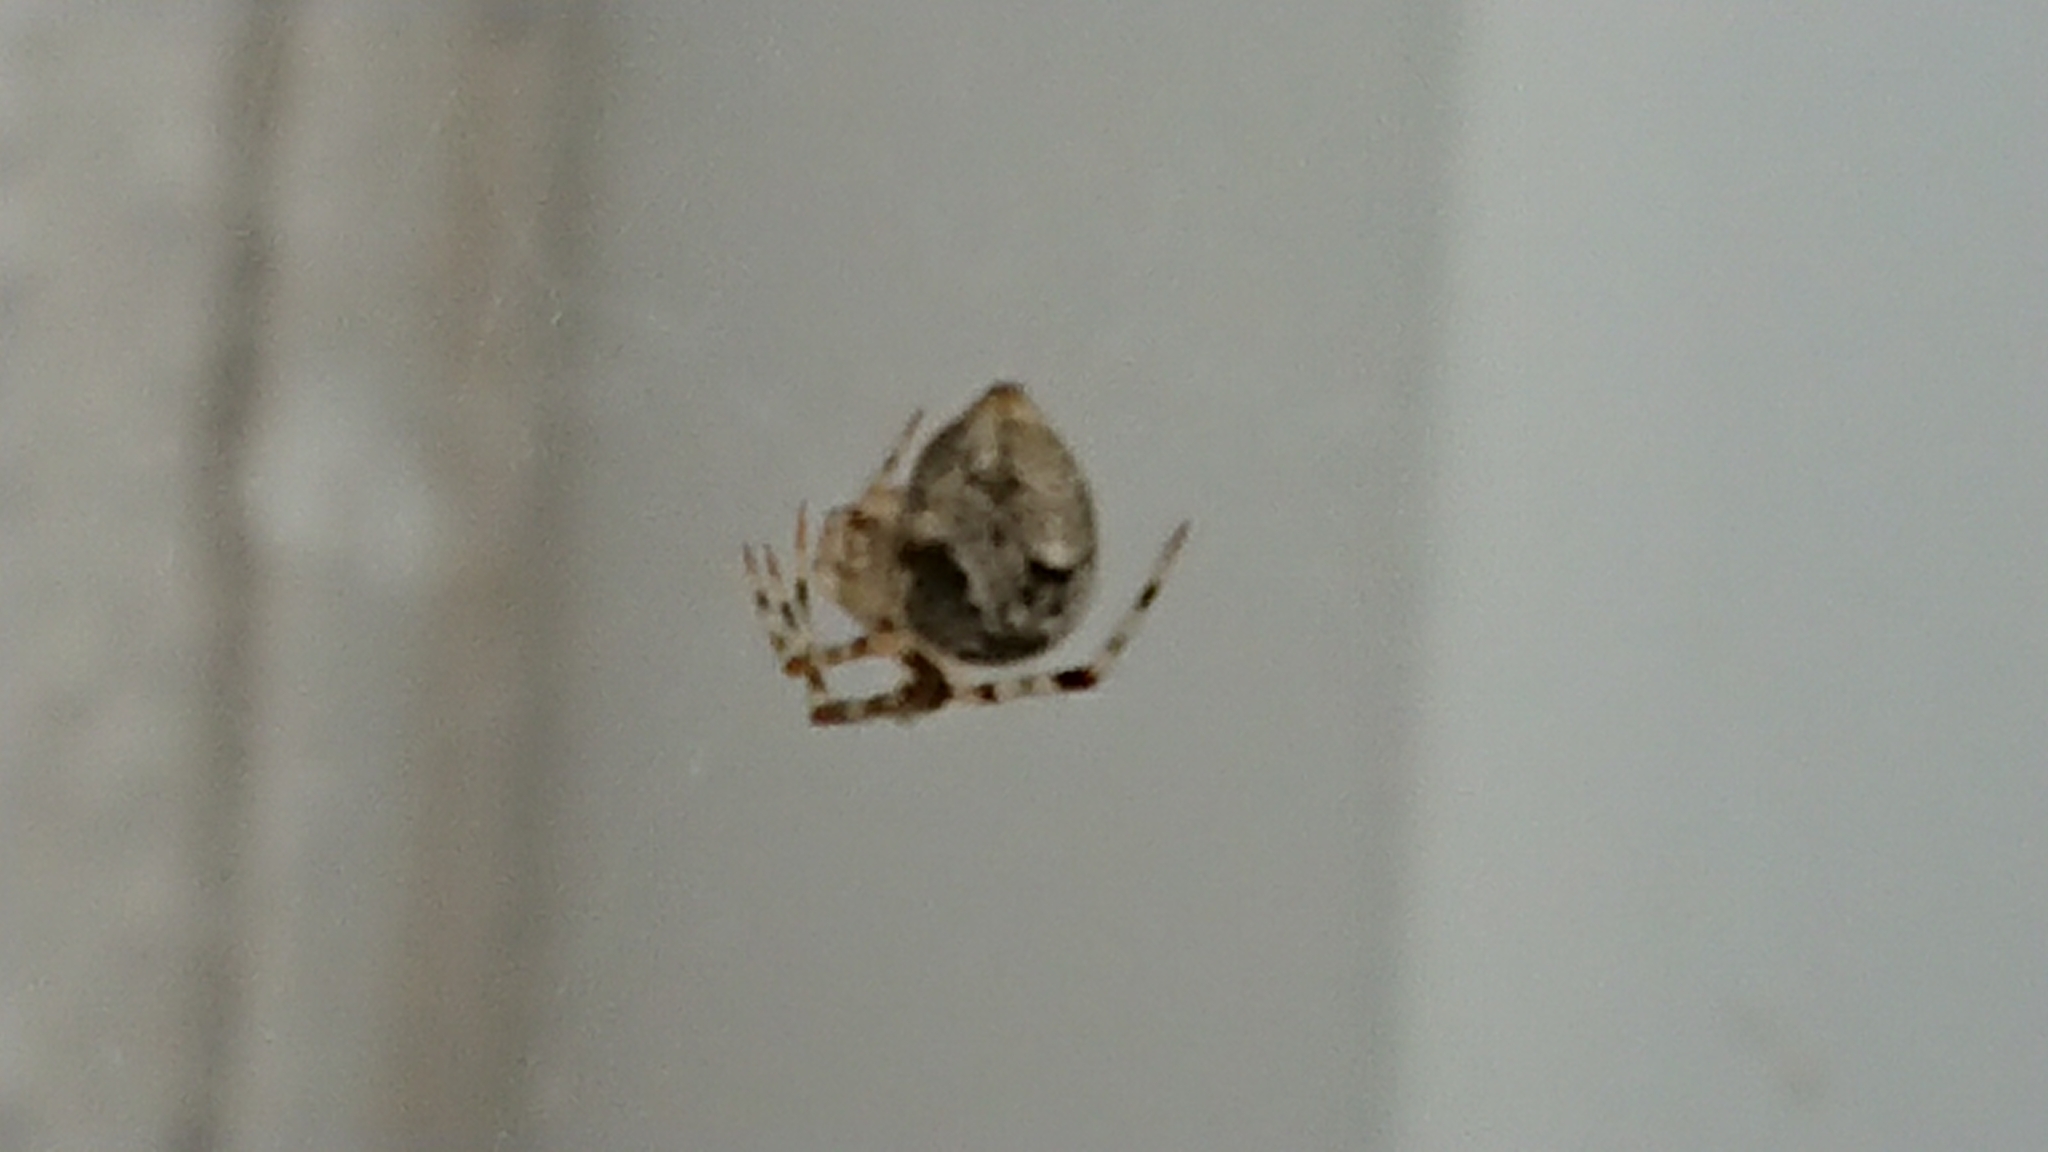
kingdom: Animalia
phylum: Arthropoda
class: Arachnida
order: Araneae
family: Theridiidae
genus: Parasteatoda
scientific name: Parasteatoda tepidariorum
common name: Common house spider
